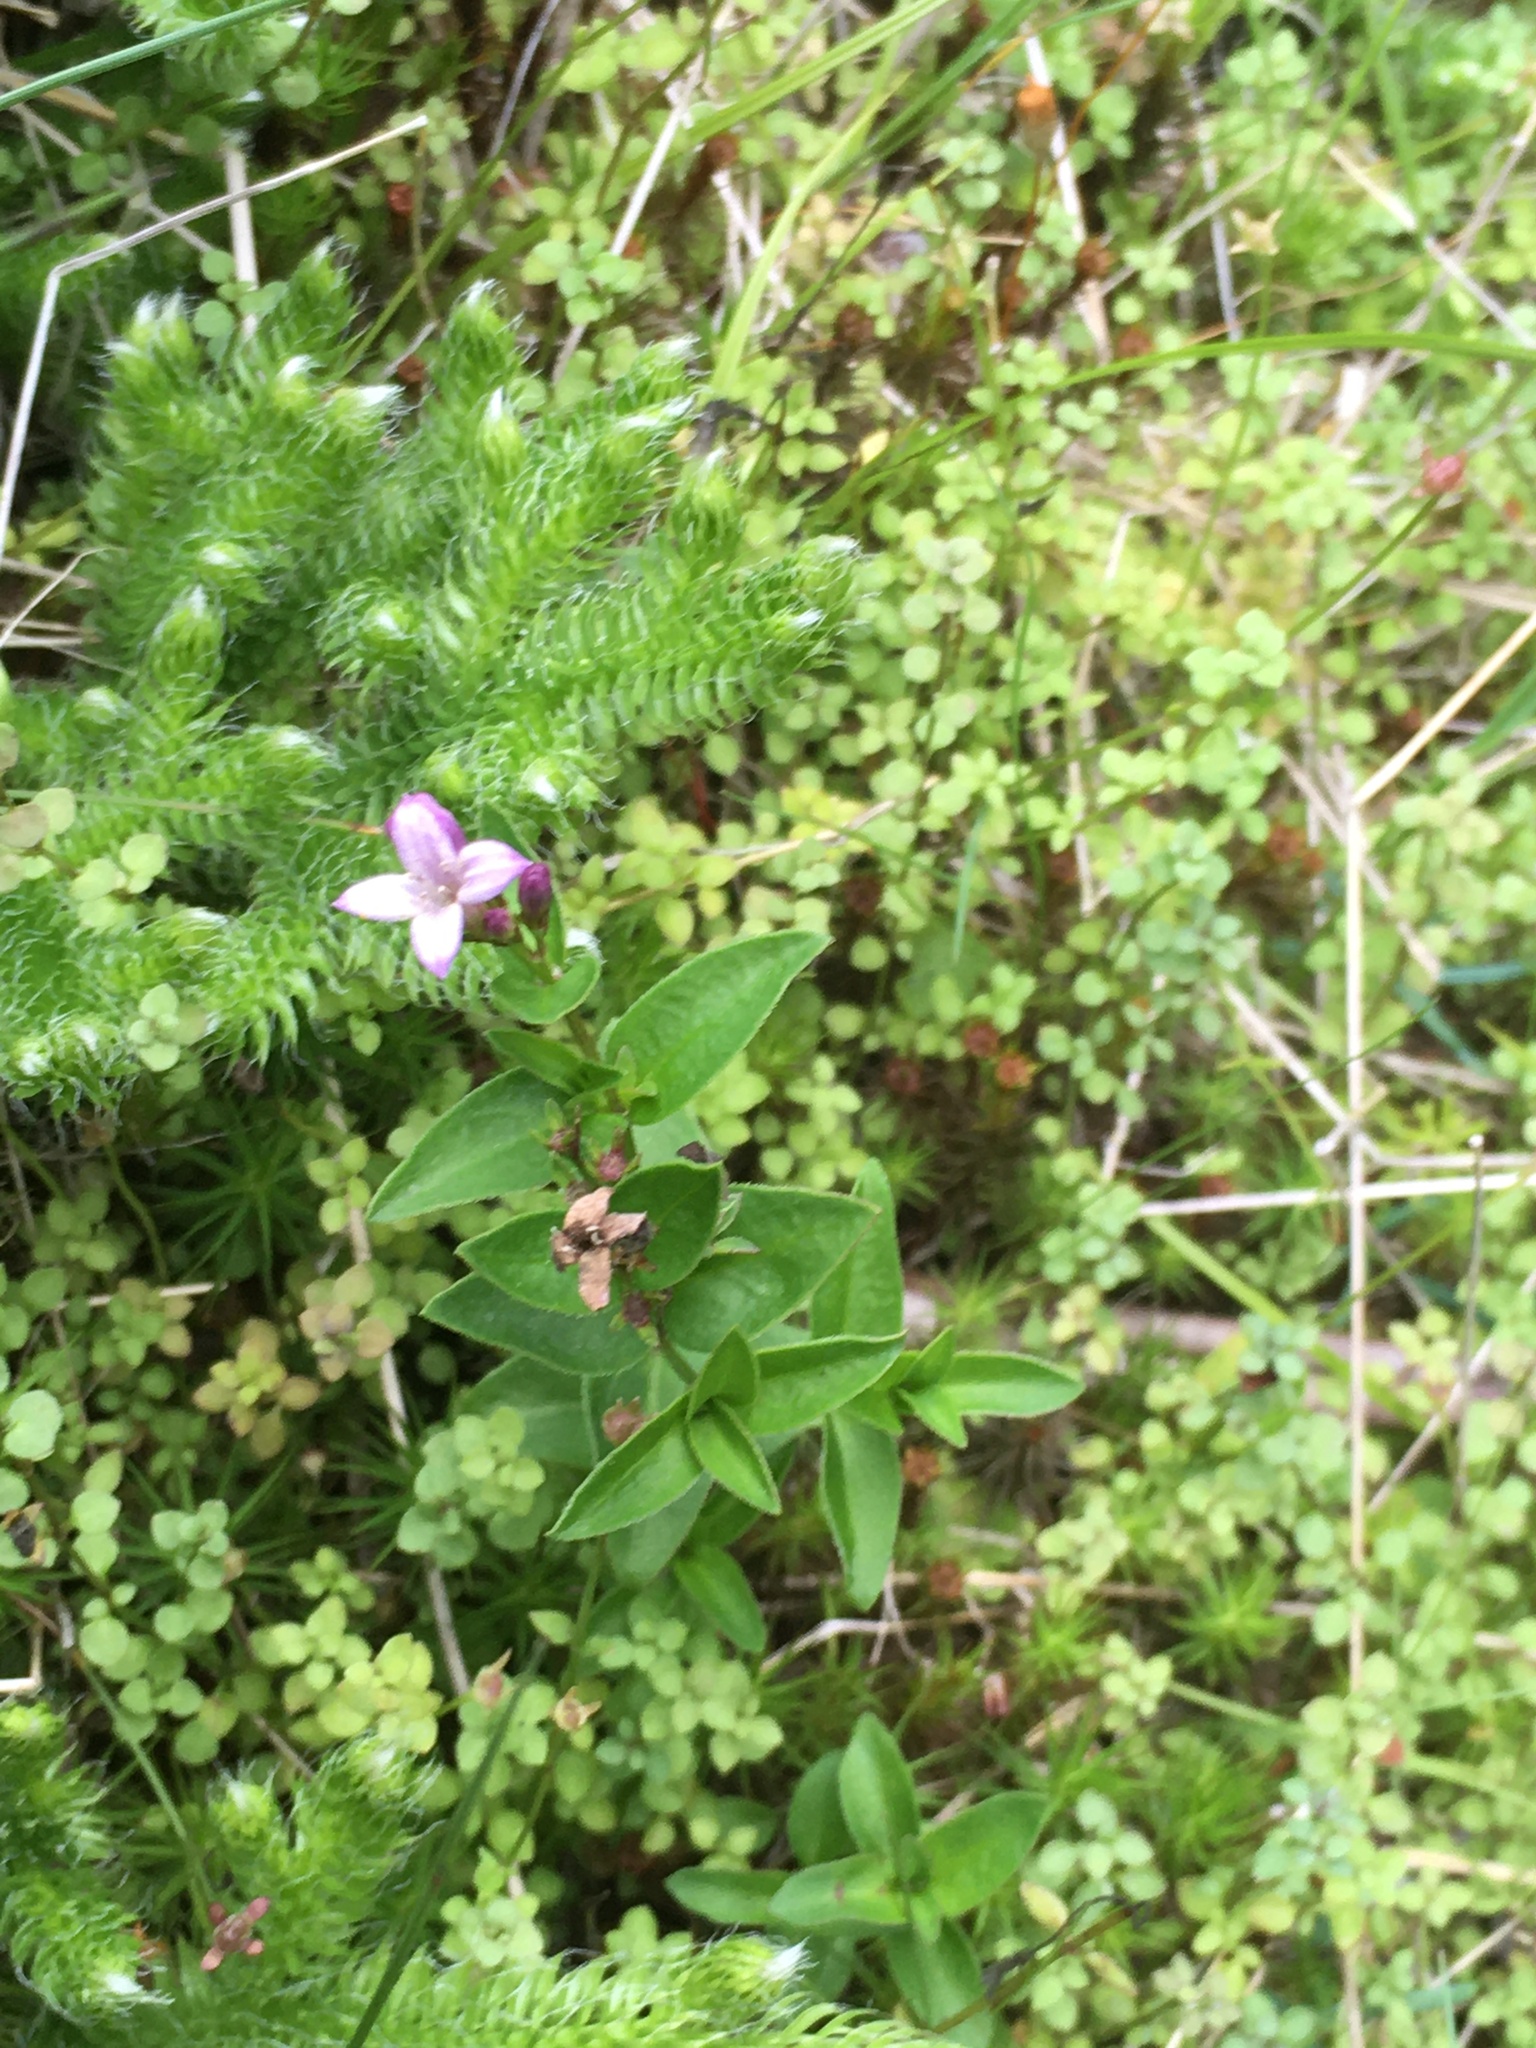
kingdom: Plantae
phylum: Tracheophyta
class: Magnoliopsida
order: Gentianales
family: Rubiaceae
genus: Houstonia
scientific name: Houstonia purpurea
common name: Summer bluet
